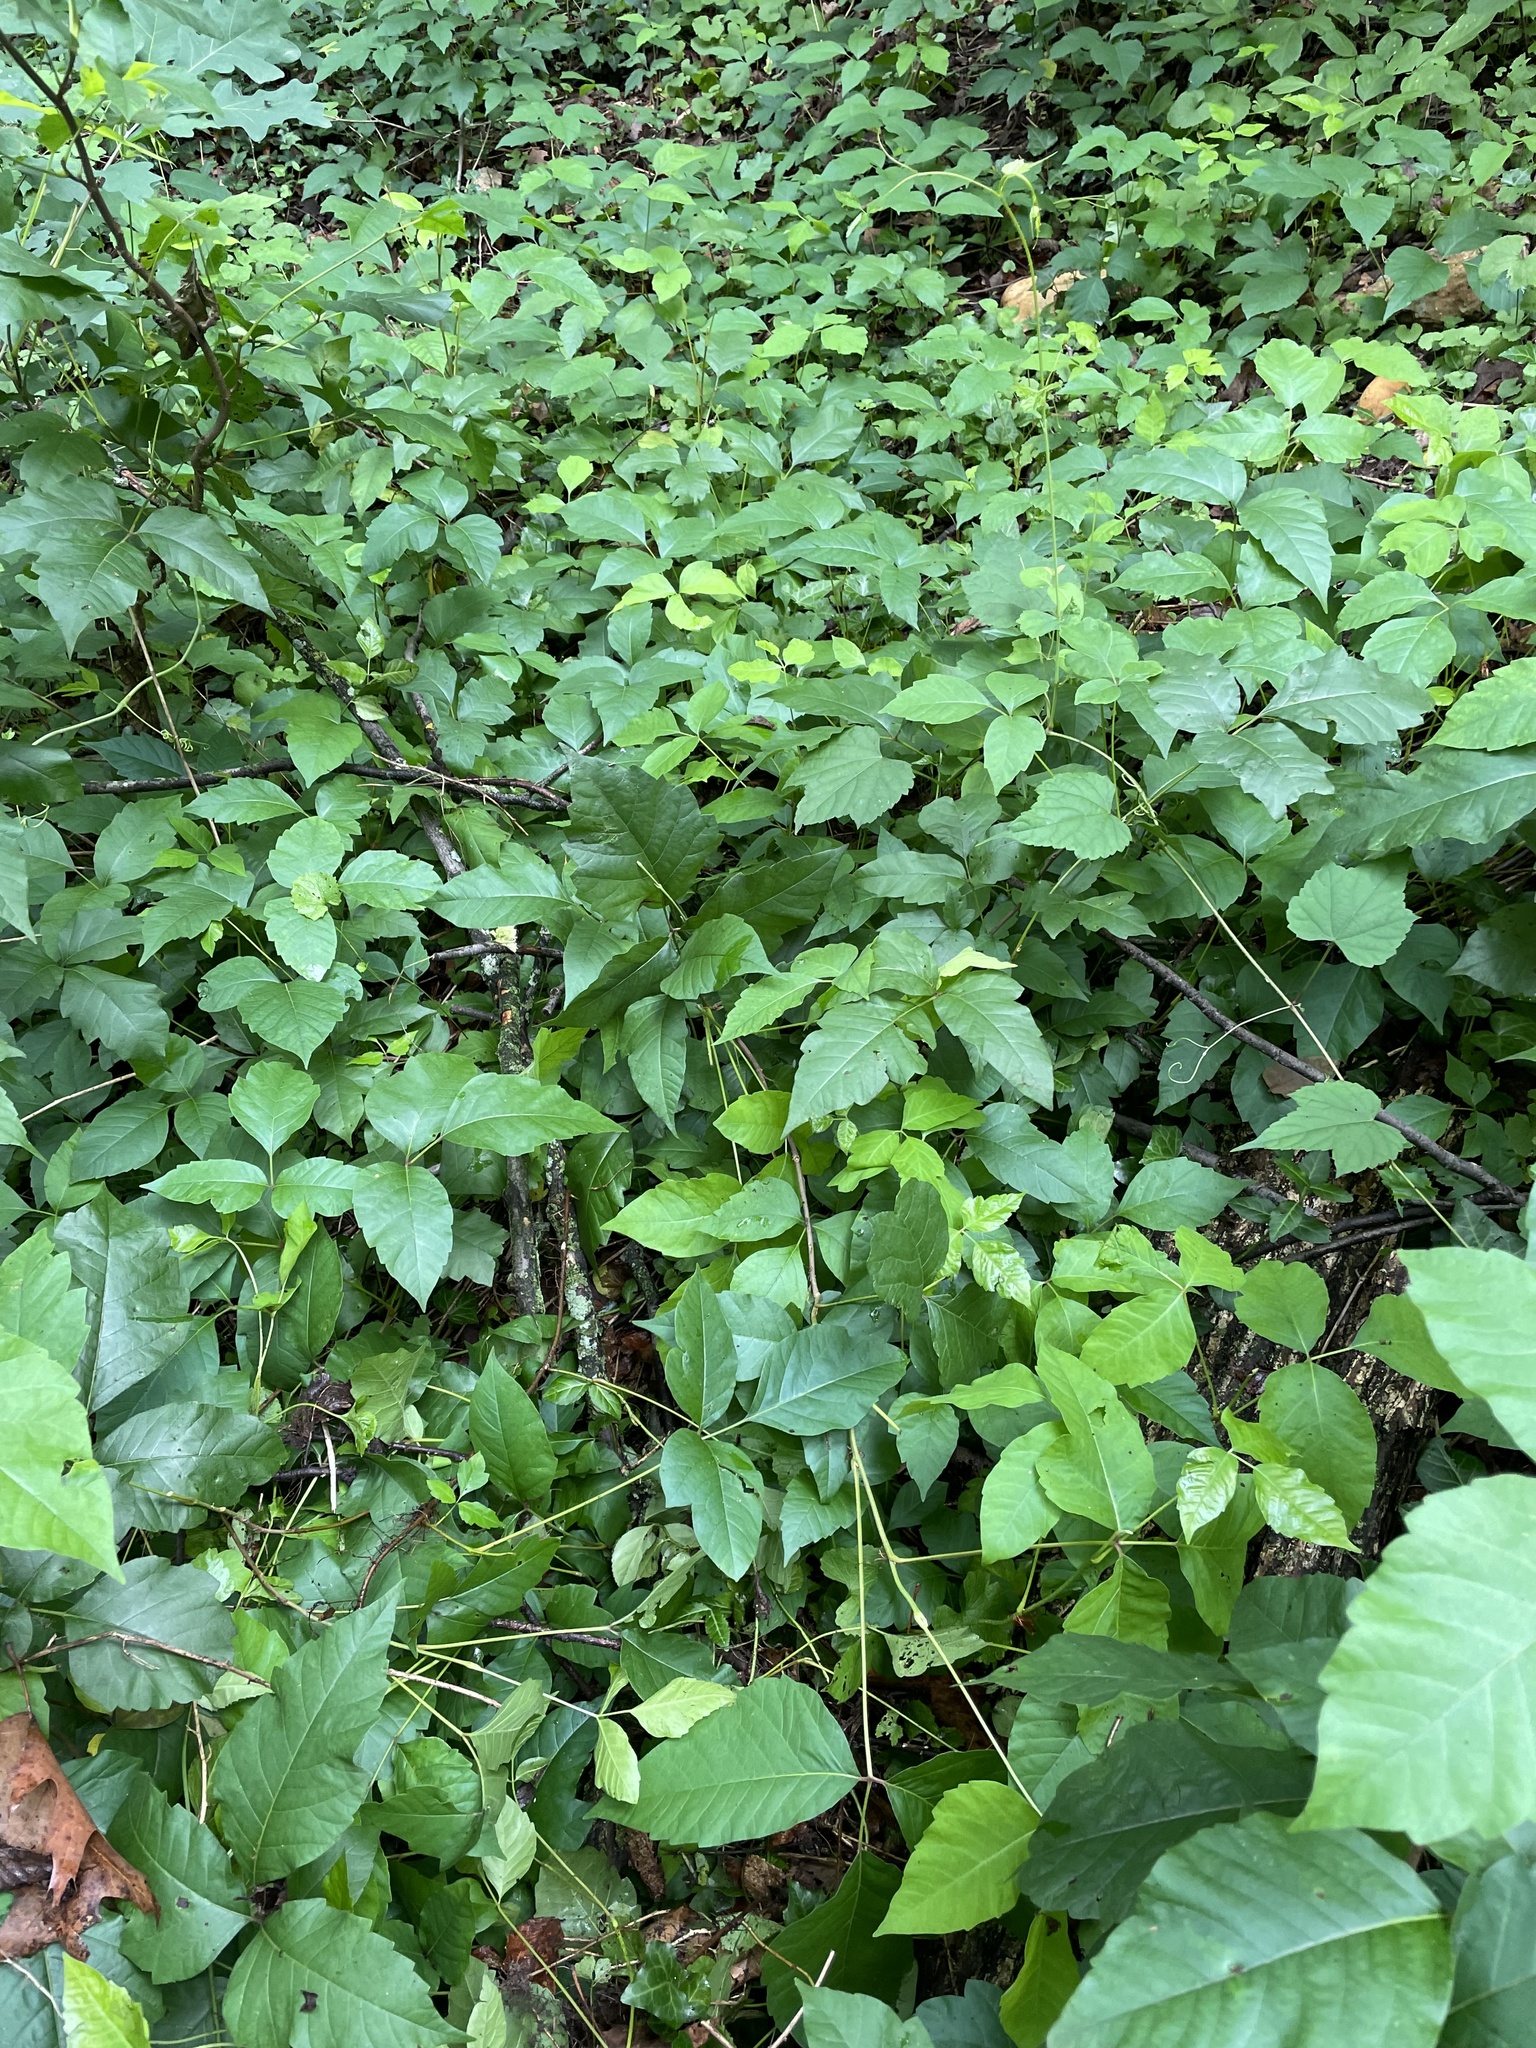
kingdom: Plantae
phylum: Tracheophyta
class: Magnoliopsida
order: Sapindales
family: Anacardiaceae
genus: Toxicodendron
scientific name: Toxicodendron radicans
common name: Poison ivy
